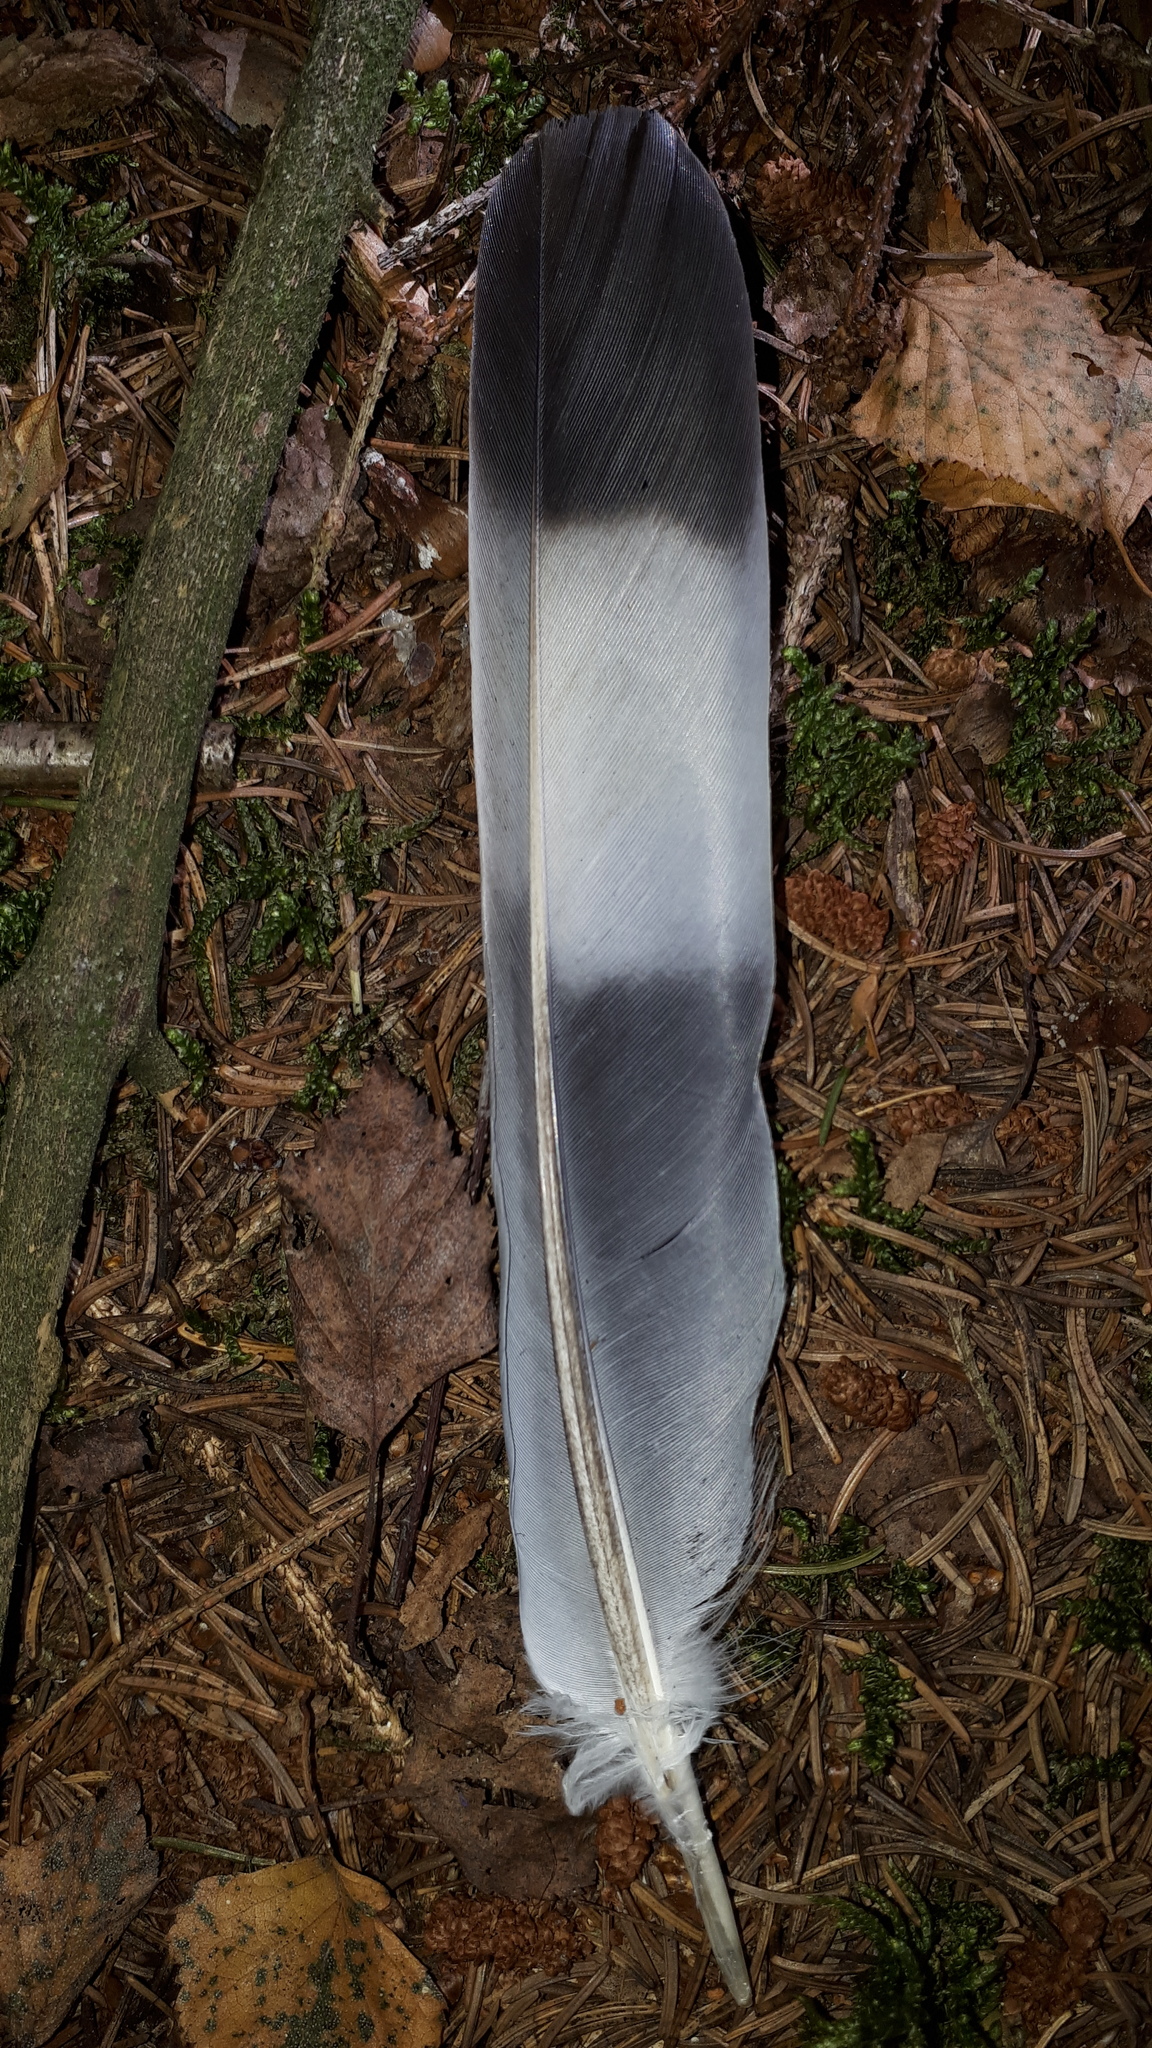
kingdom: Animalia
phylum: Chordata
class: Aves
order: Columbiformes
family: Columbidae
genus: Columba
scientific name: Columba palumbus
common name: Common wood pigeon
